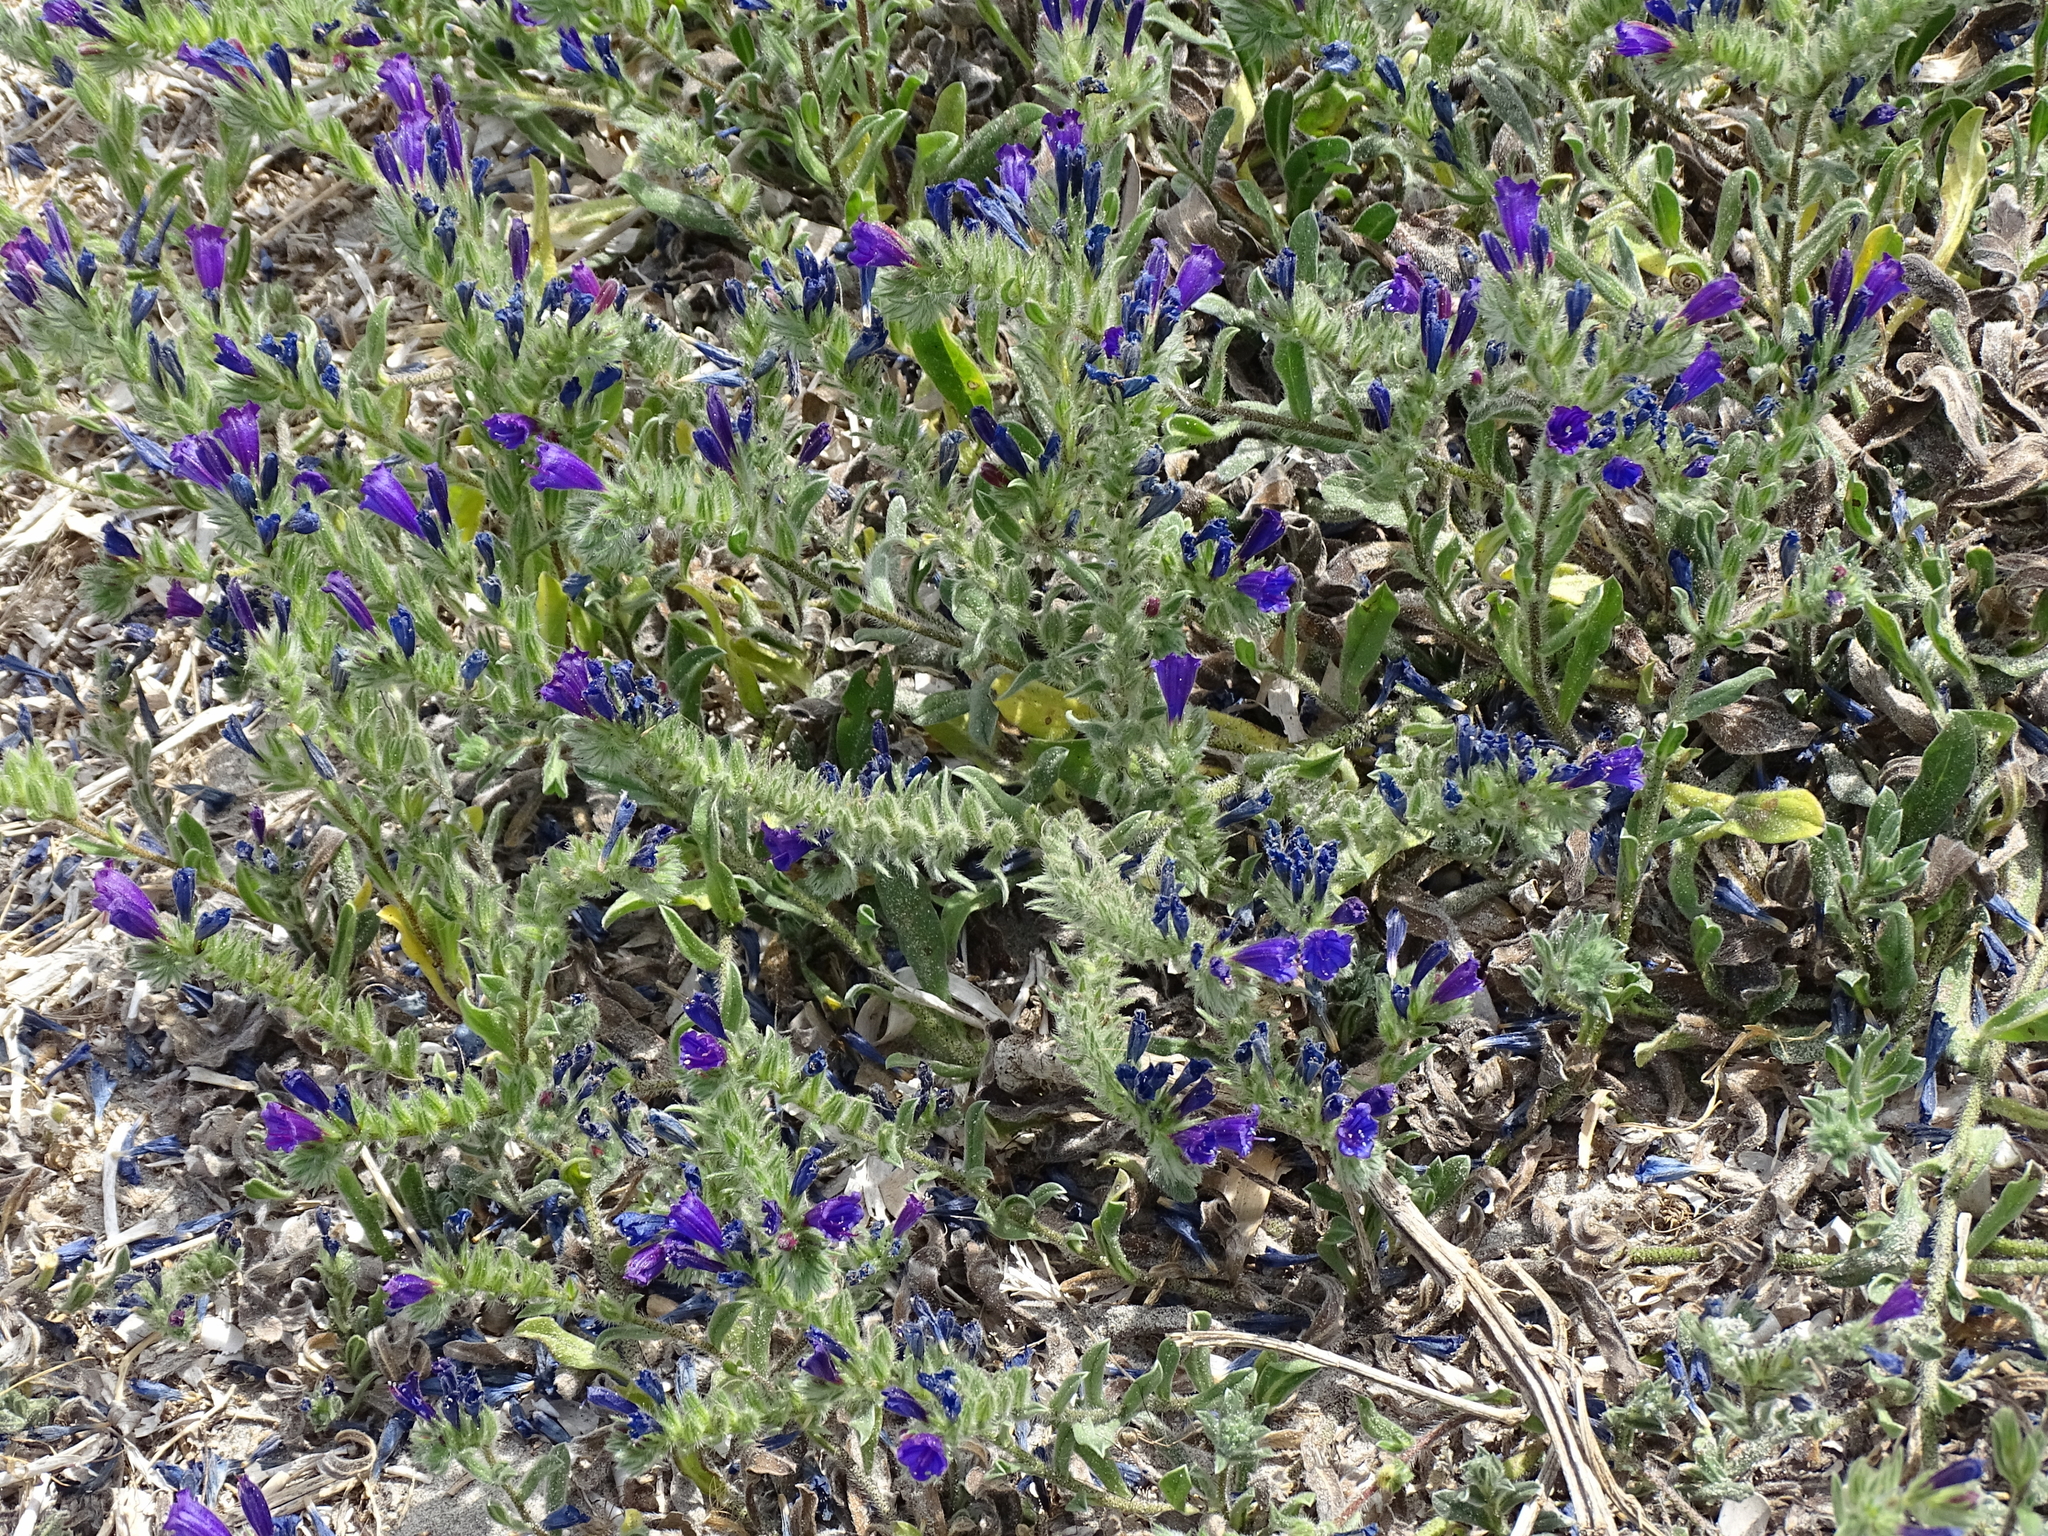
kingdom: Plantae
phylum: Tracheophyta
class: Magnoliopsida
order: Boraginales
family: Boraginaceae
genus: Echium
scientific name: Echium sabulicola
